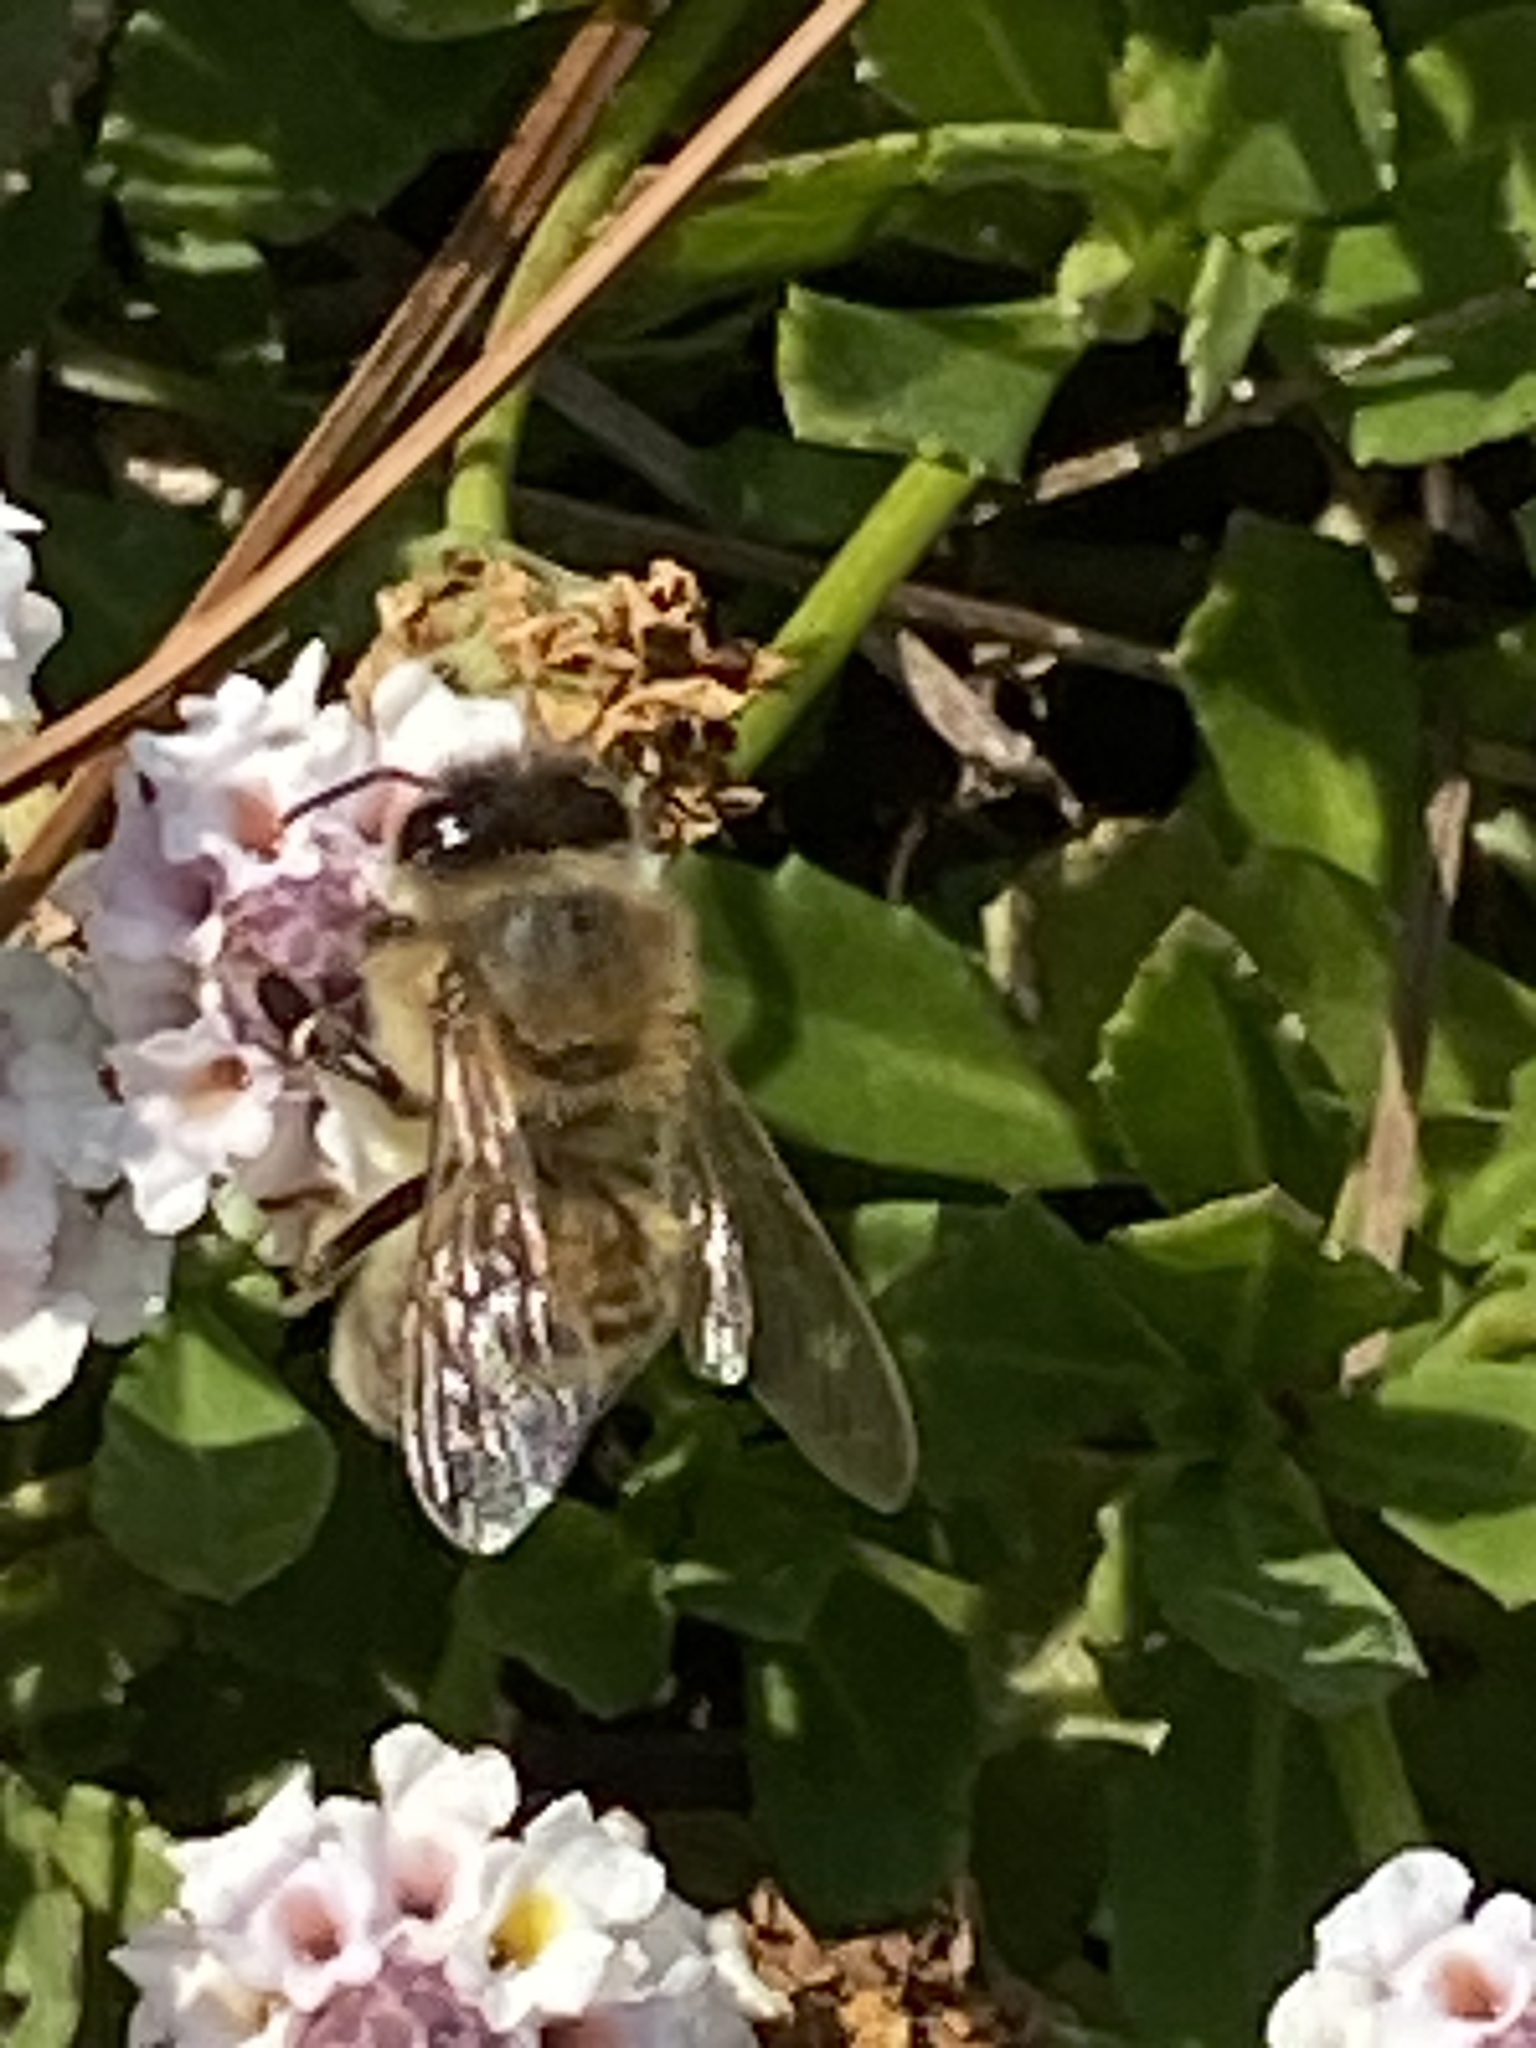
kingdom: Animalia
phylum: Arthropoda
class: Insecta
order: Hymenoptera
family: Apidae
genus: Apis
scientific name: Apis mellifera
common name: Honey bee
